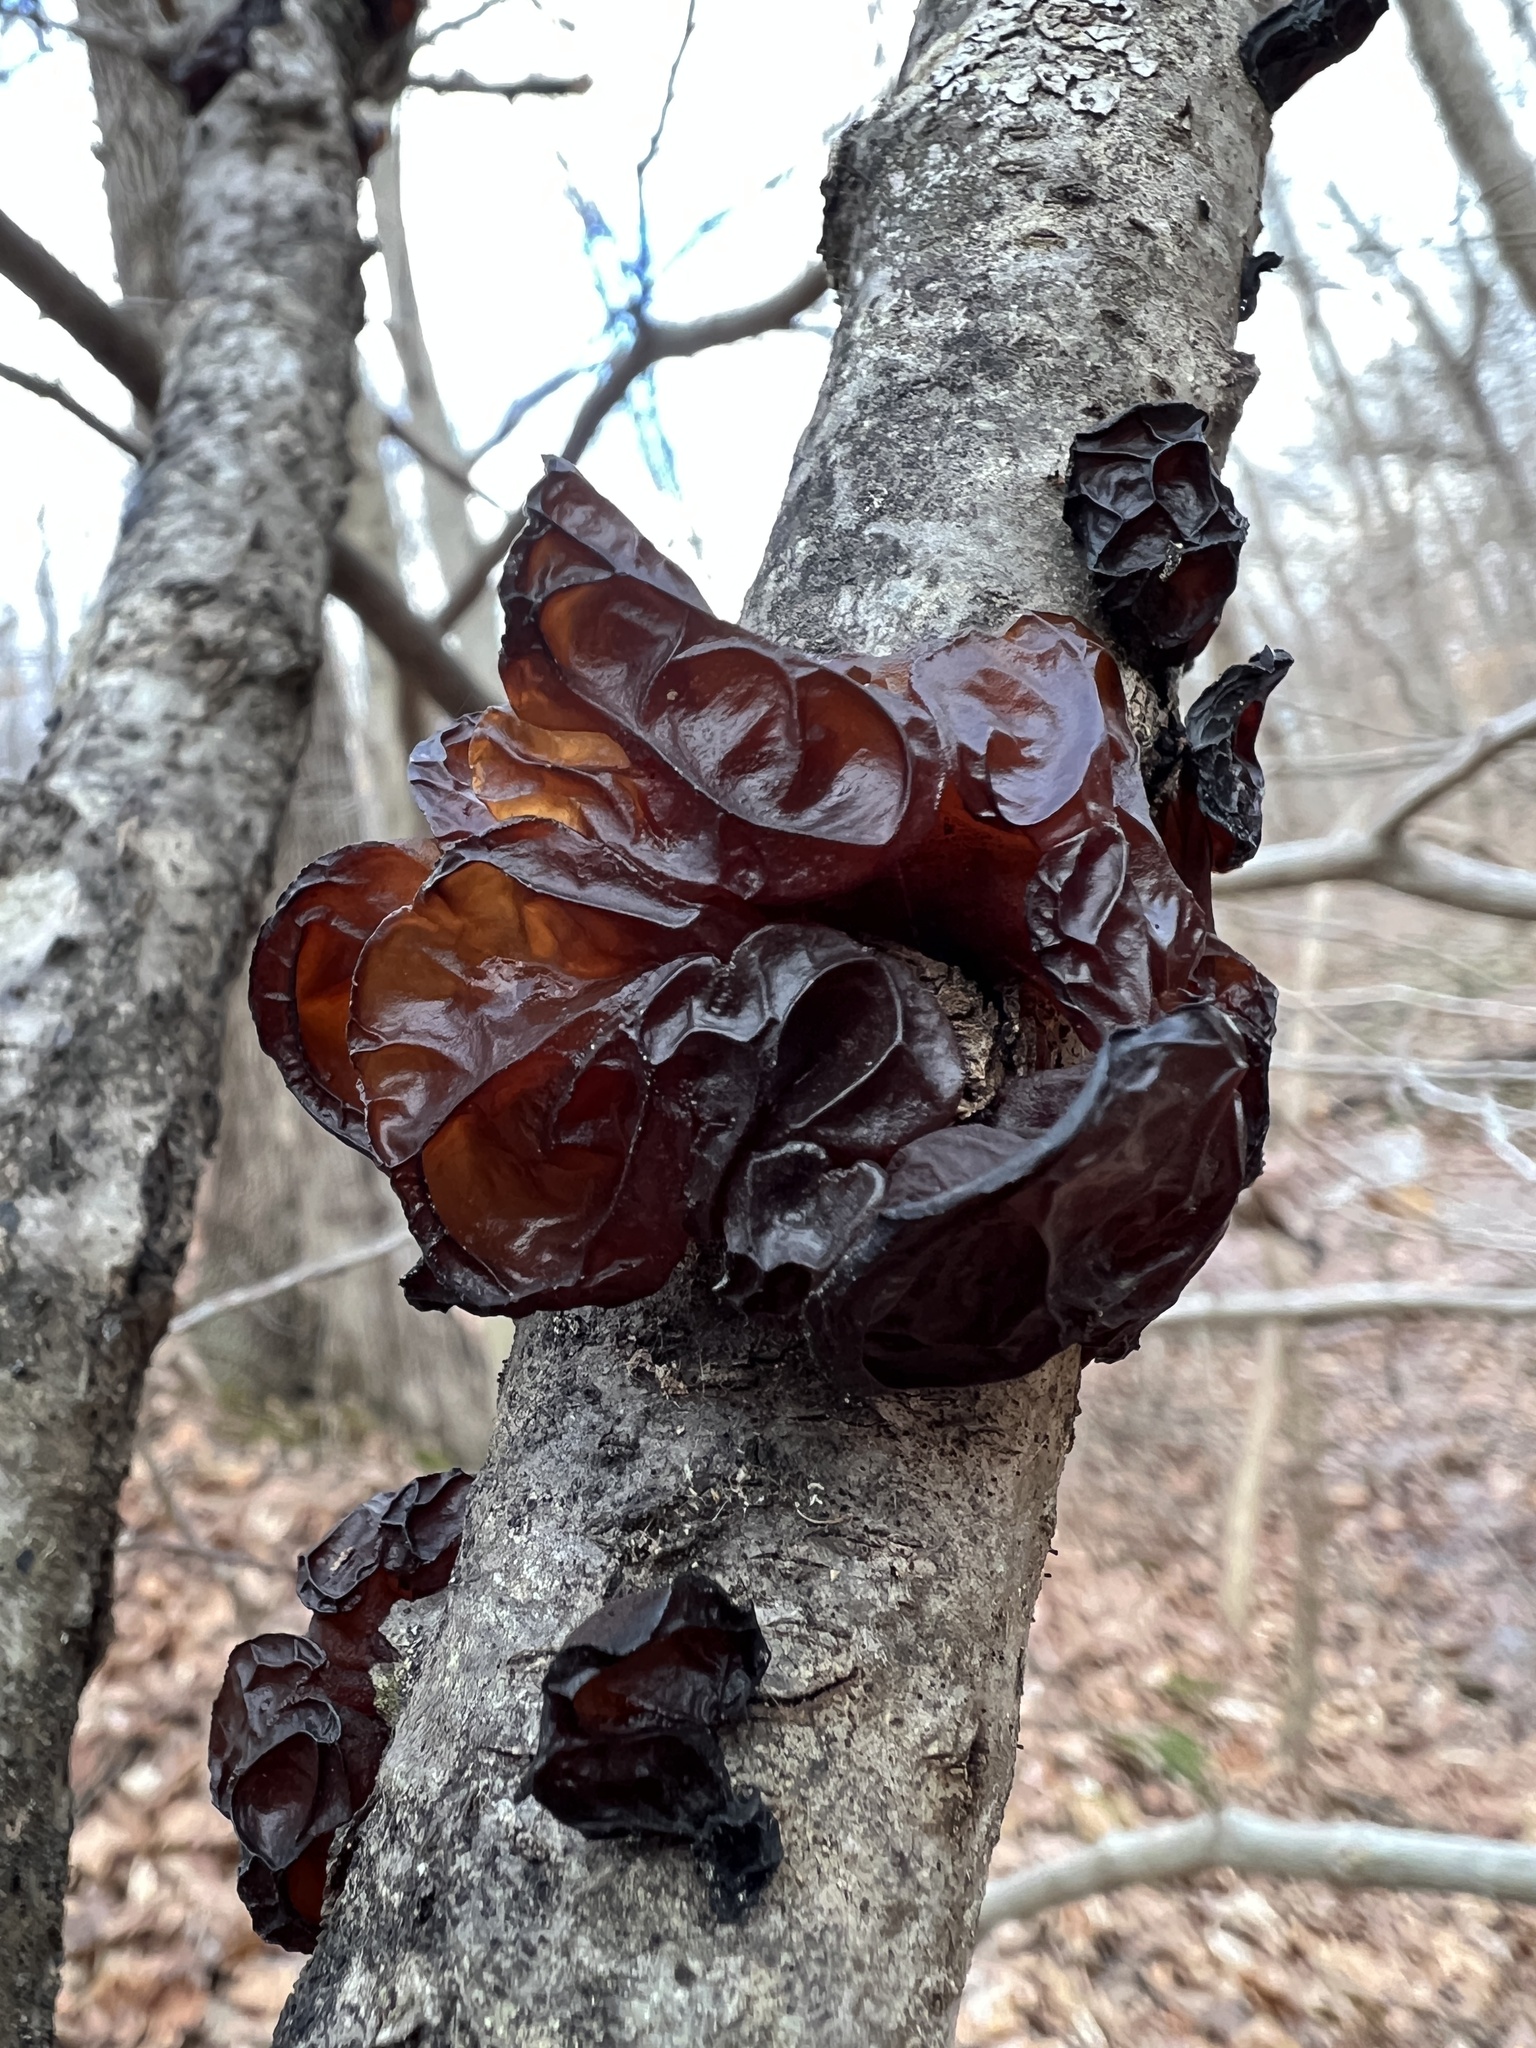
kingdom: Fungi
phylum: Basidiomycota
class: Agaricomycetes
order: Auriculariales
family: Auriculariaceae
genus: Exidia
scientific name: Exidia
